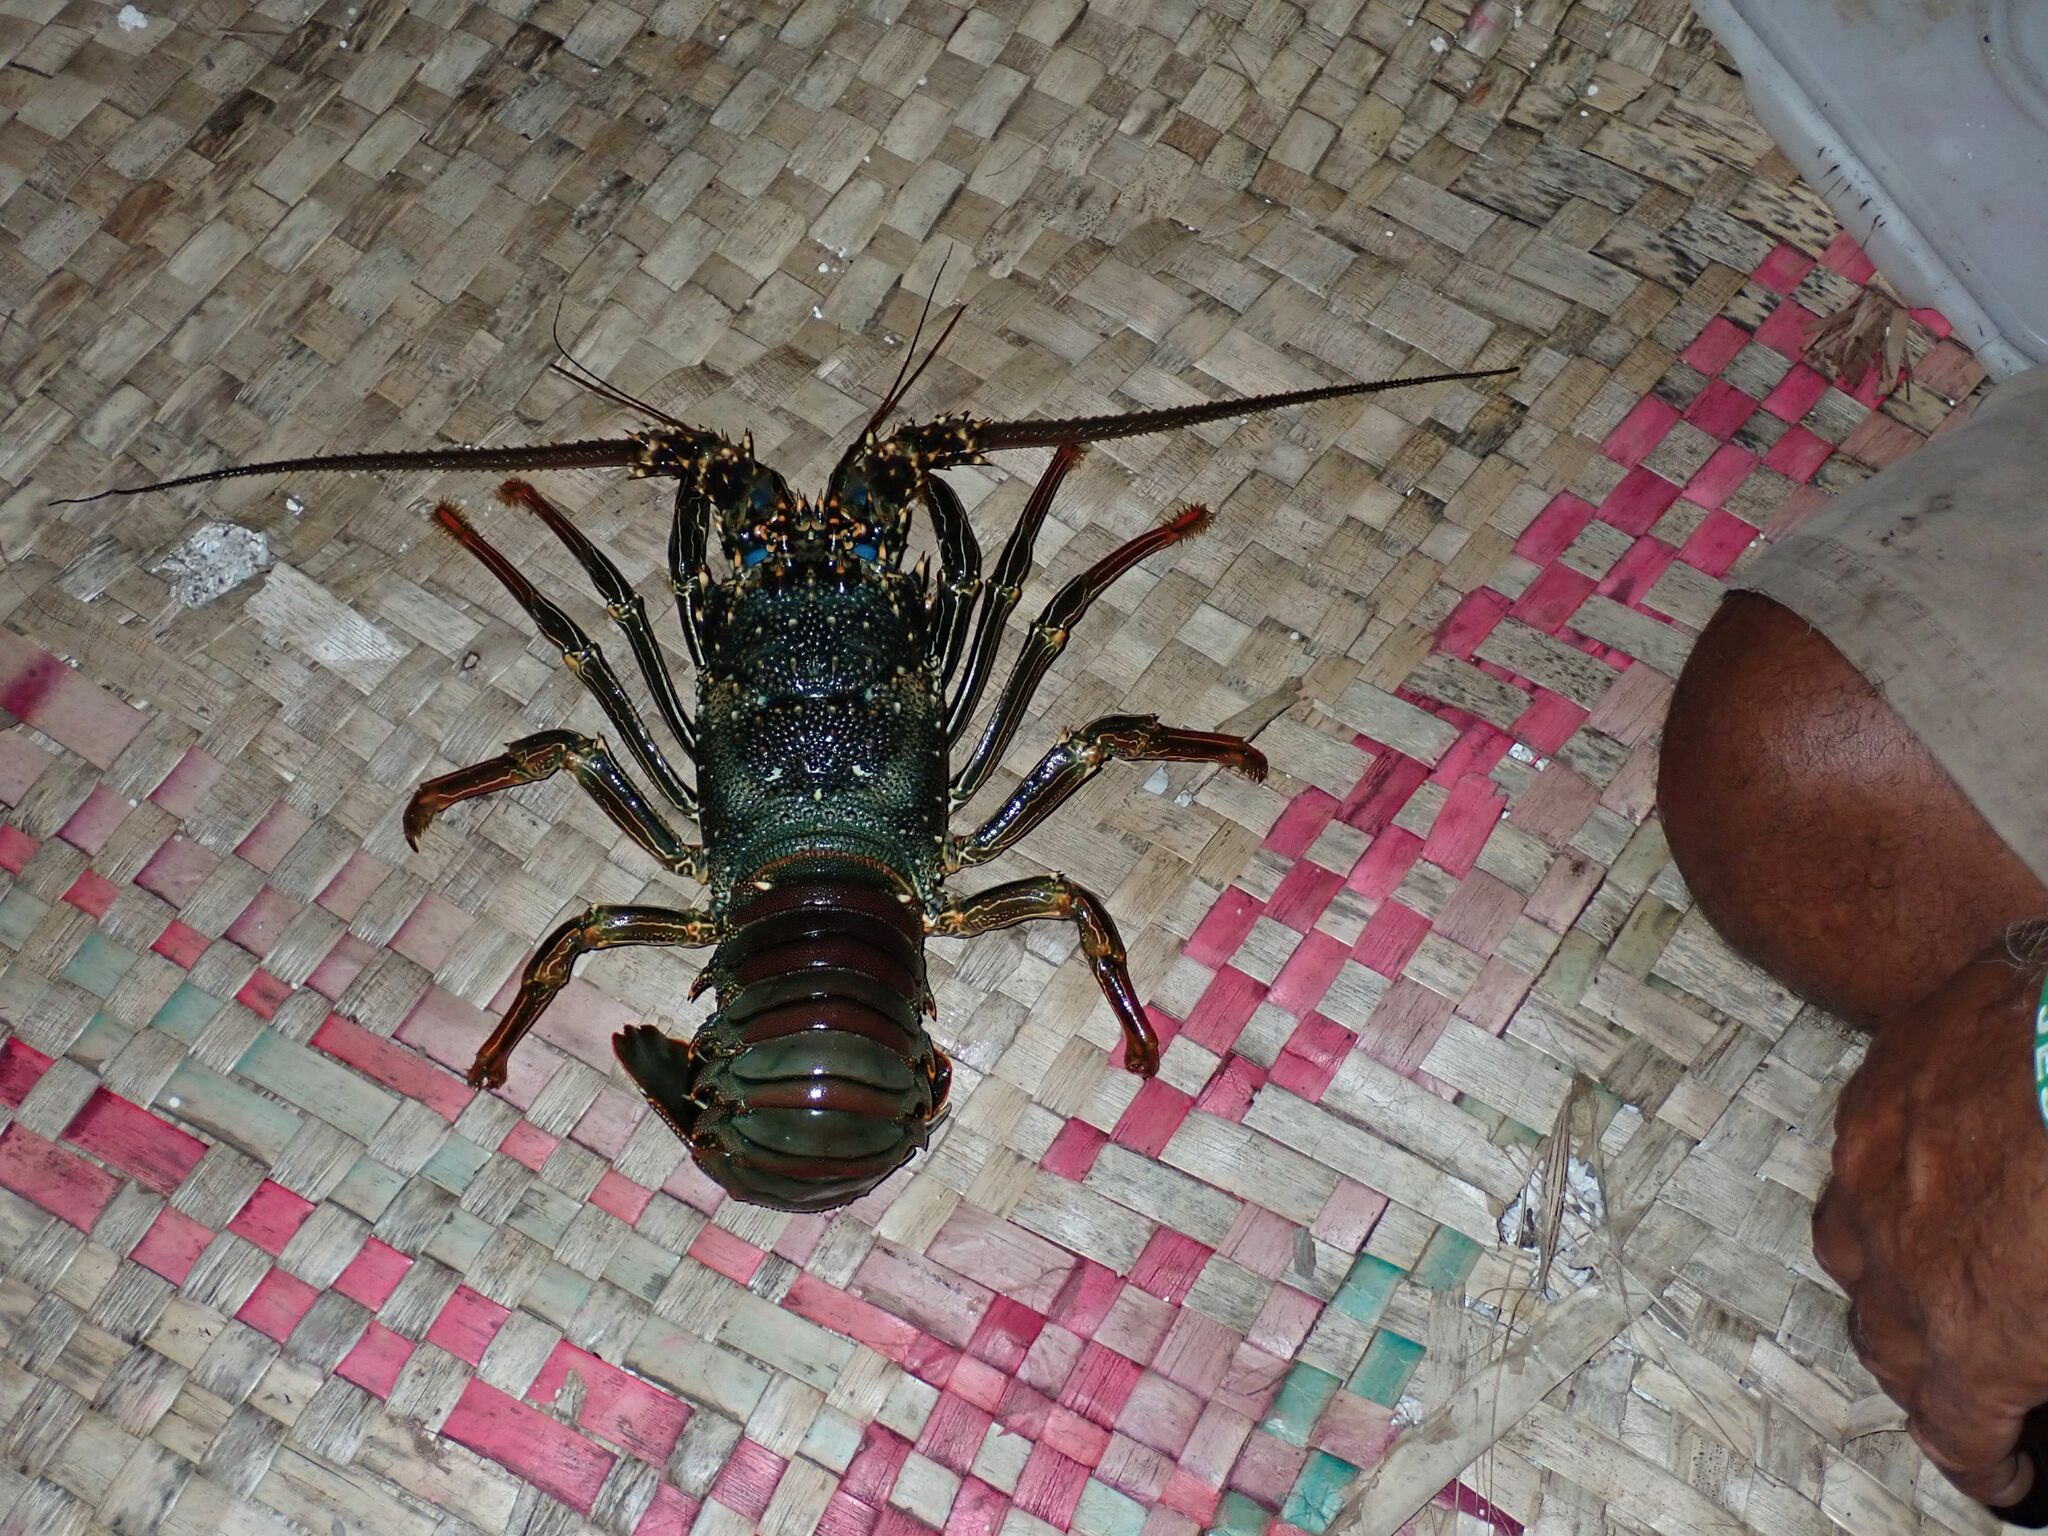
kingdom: Animalia
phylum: Arthropoda
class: Malacostraca
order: Decapoda
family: Palinuridae
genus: Panulirus
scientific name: Panulirus penicillatus
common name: Pronghorn spiny lobster
